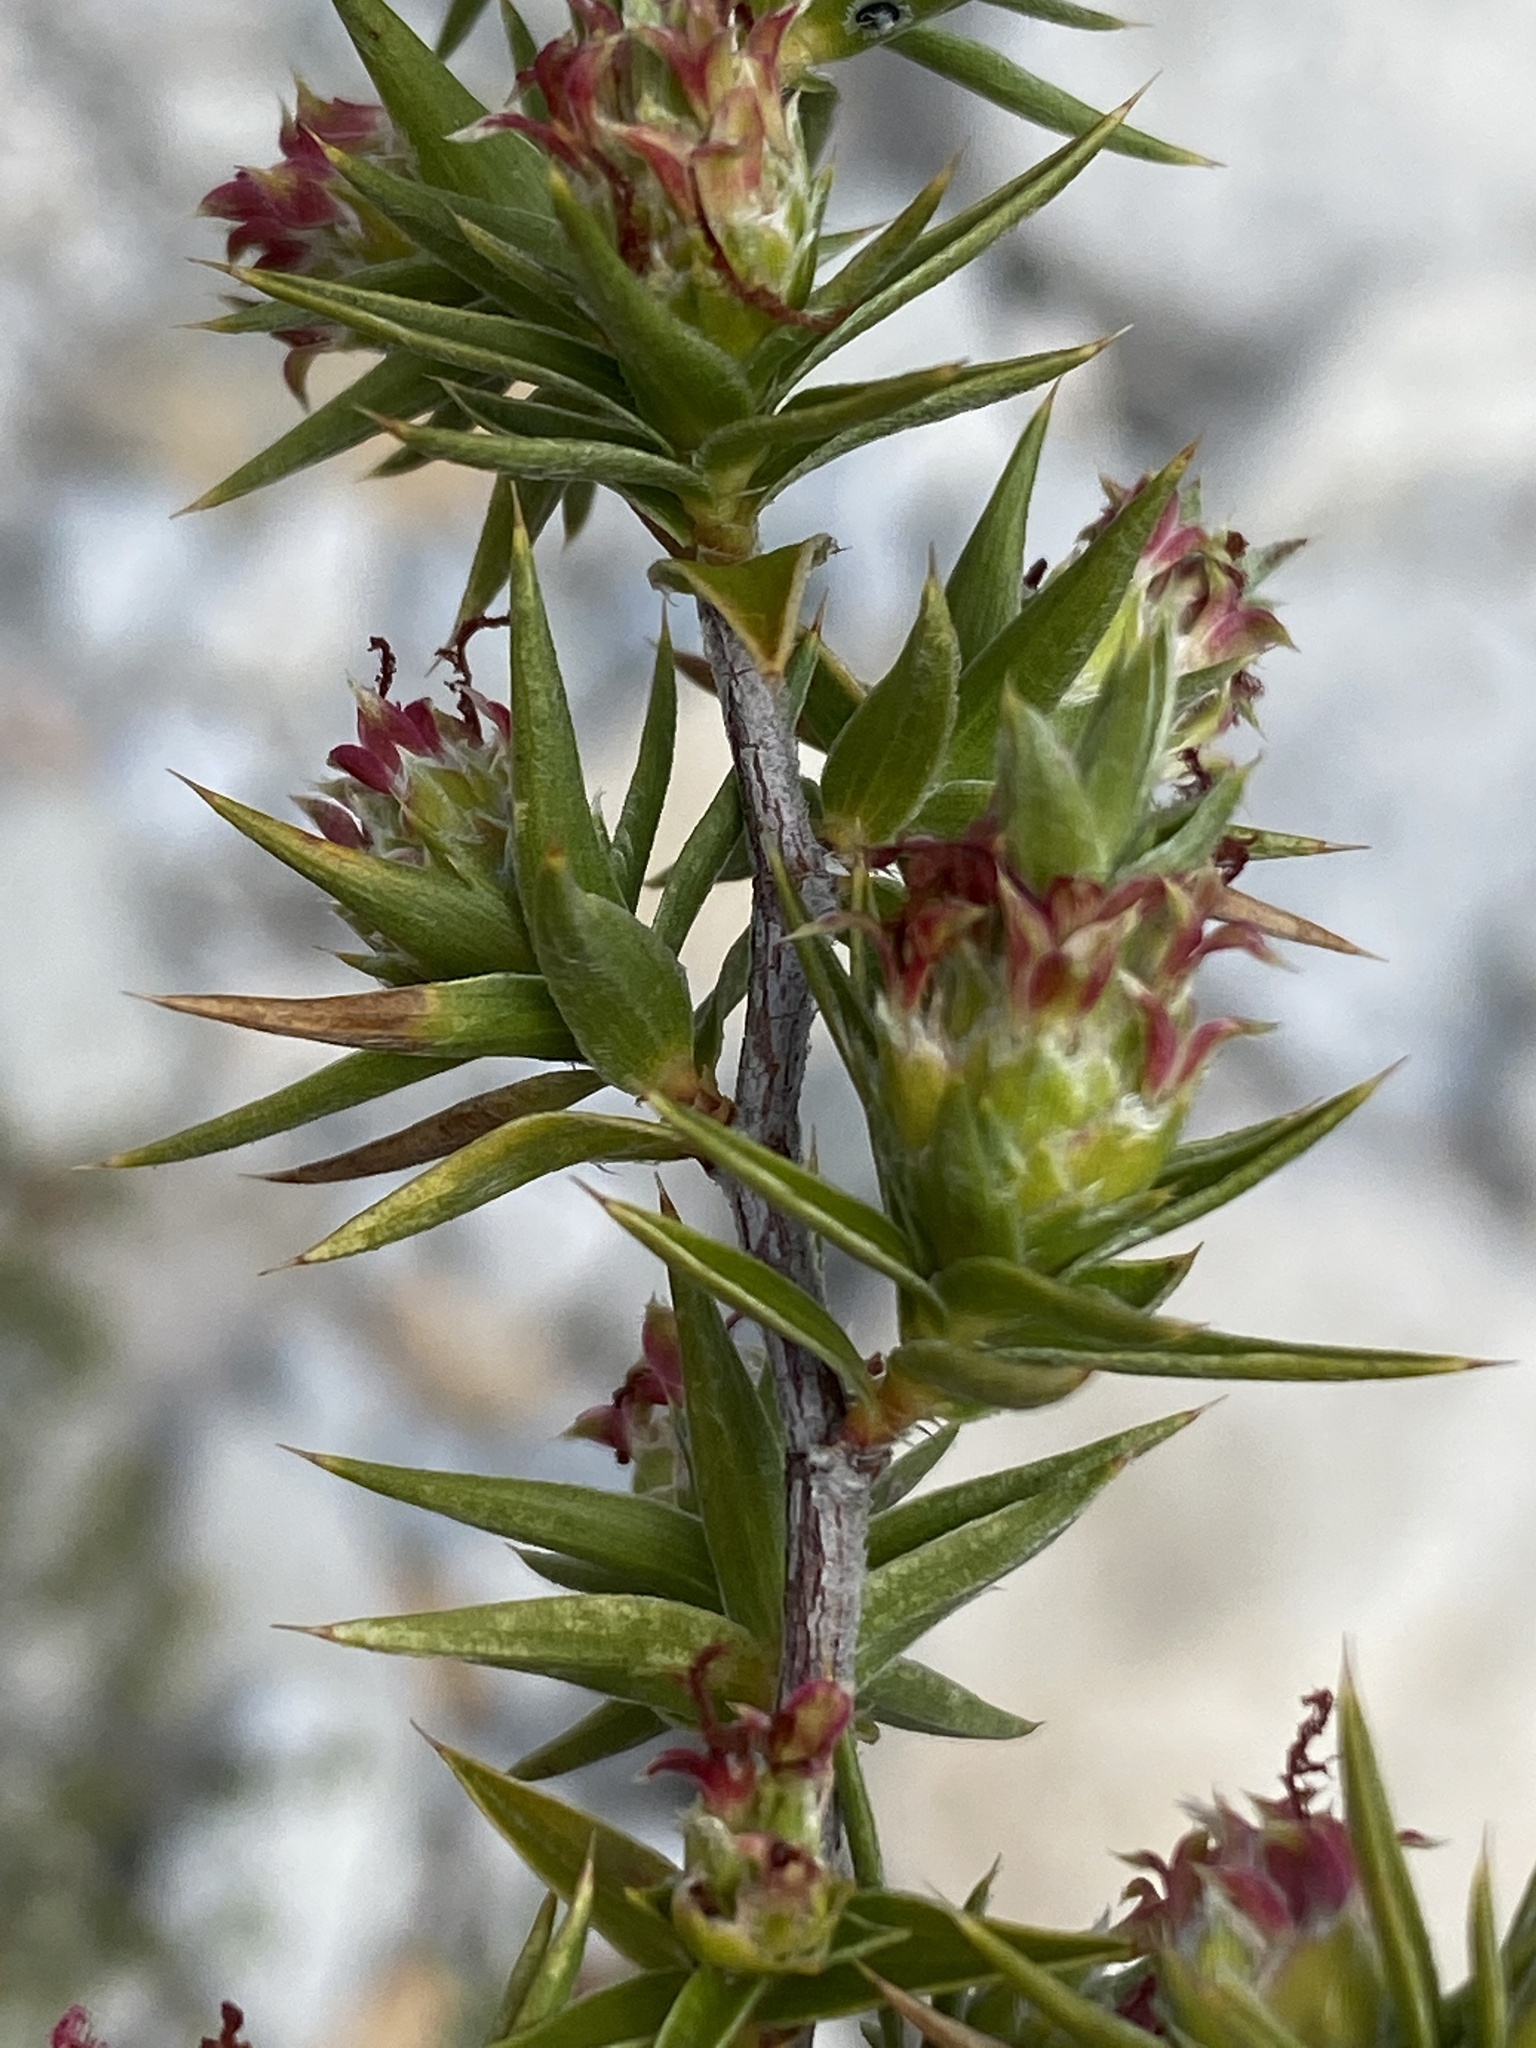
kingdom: Plantae
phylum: Tracheophyta
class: Magnoliopsida
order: Rosales
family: Rosaceae
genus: Cliffortia
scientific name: Cliffortia ruscifolia
